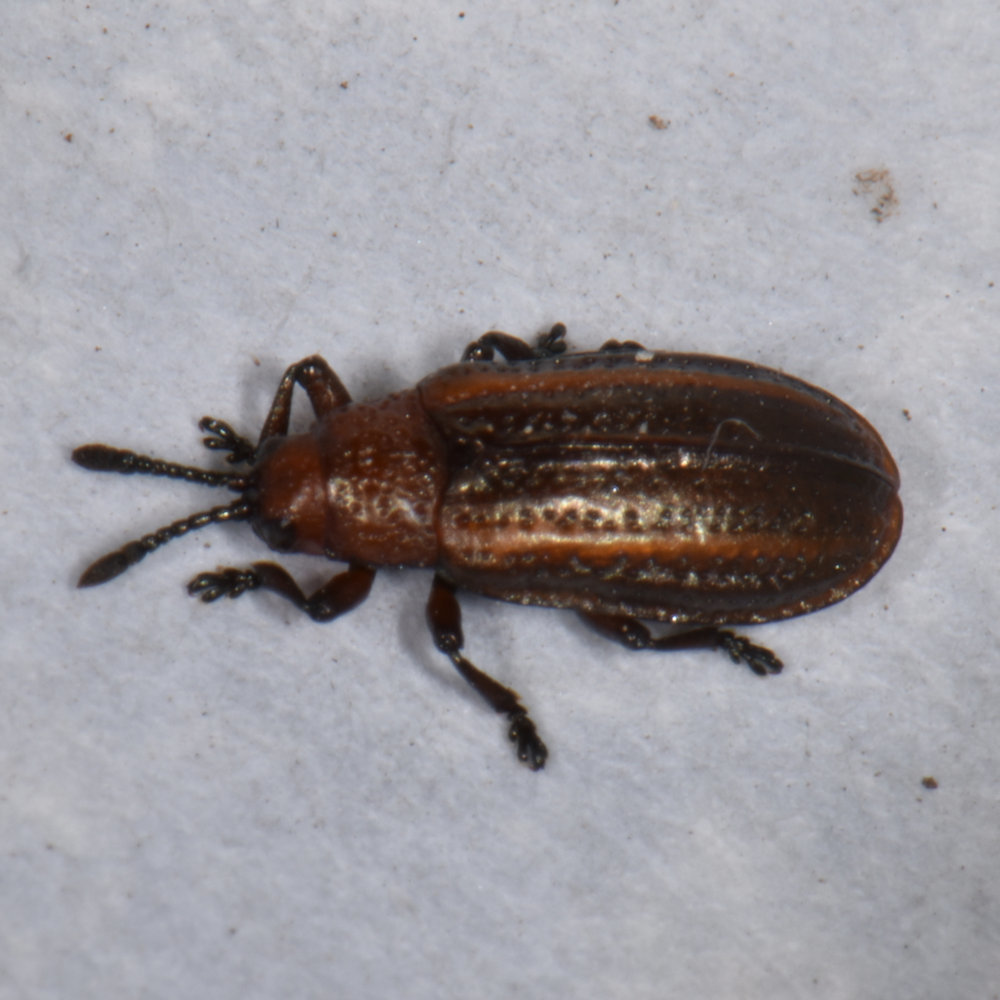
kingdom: Animalia
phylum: Arthropoda
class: Insecta
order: Coleoptera
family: Chrysomelidae
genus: Microrhopala
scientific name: Microrhopala vittata
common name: Goldenrod leaf miner beetle
